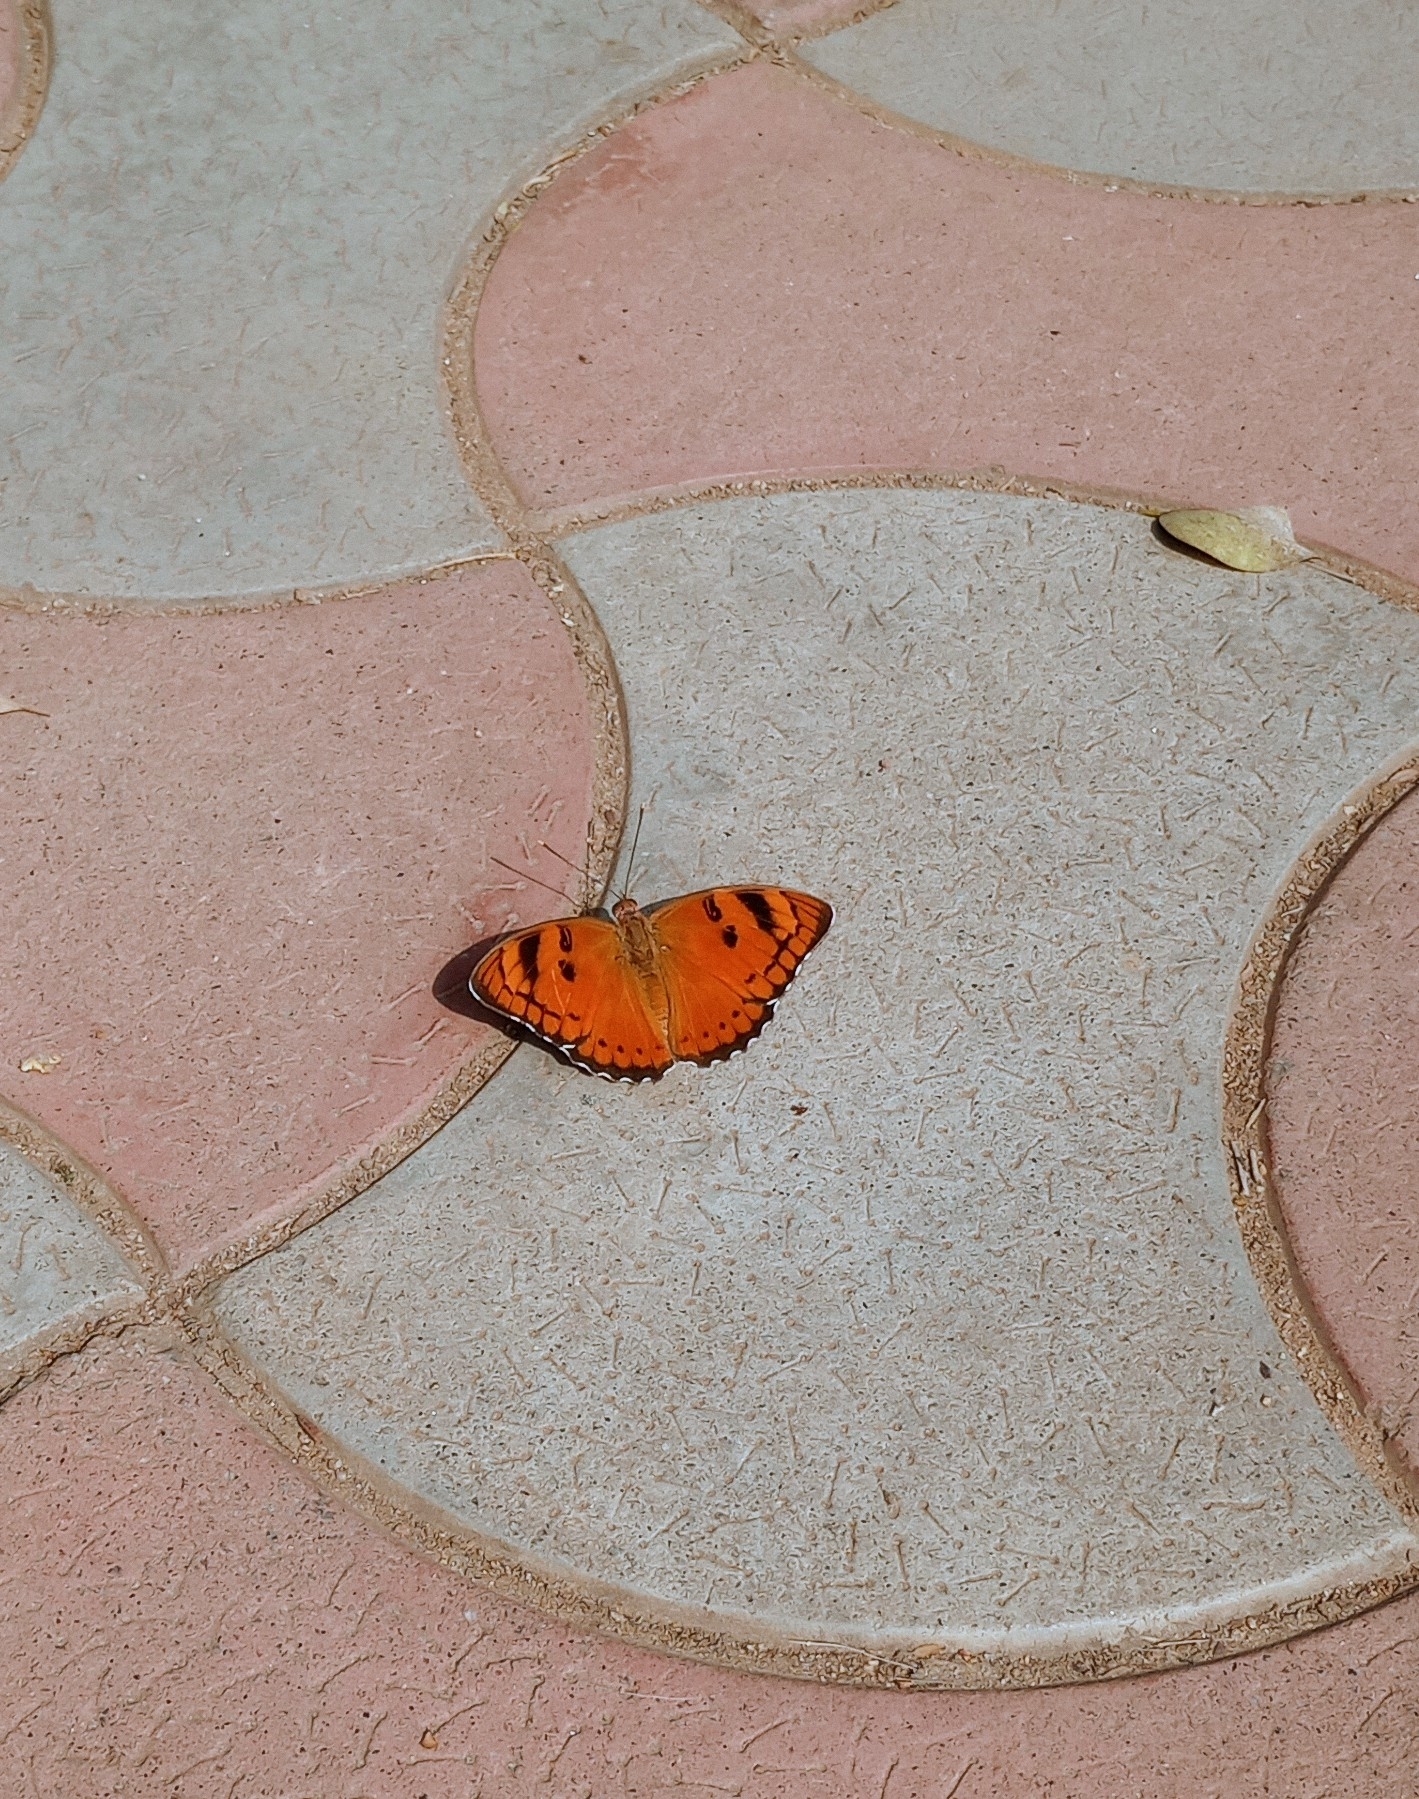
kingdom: Animalia
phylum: Arthropoda
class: Insecta
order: Lepidoptera
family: Nymphalidae
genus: Euthalia
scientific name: Euthalia nais
